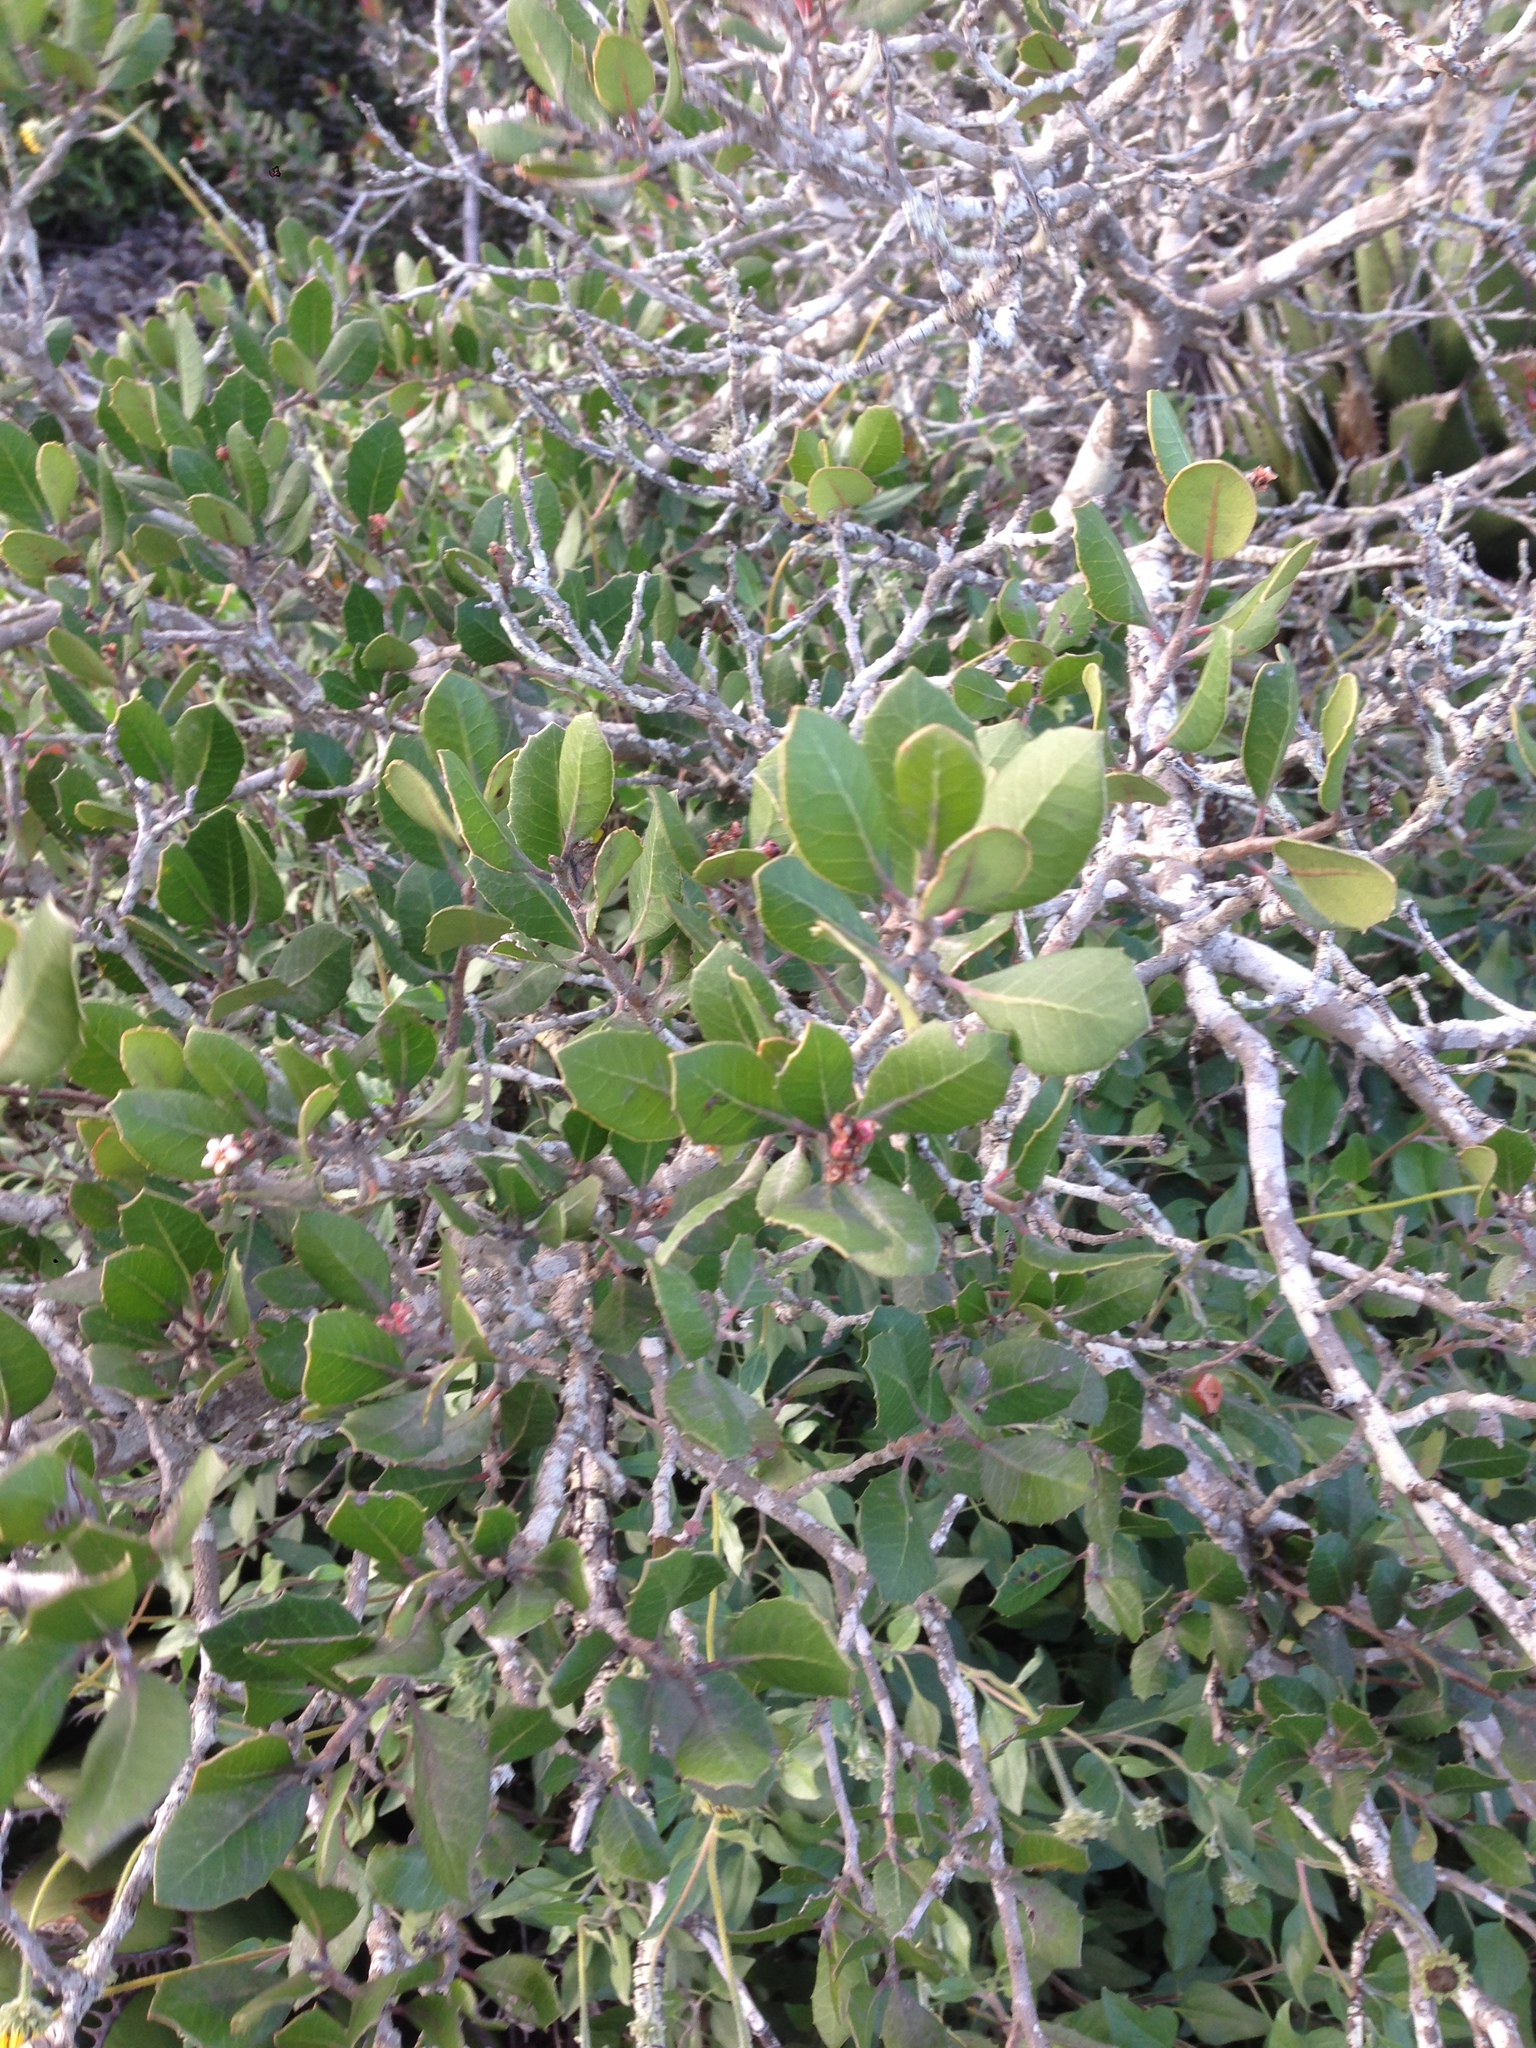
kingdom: Plantae
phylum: Tracheophyta
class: Magnoliopsida
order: Sapindales
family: Anacardiaceae
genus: Rhus
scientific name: Rhus integrifolia
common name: Lemonade sumac
